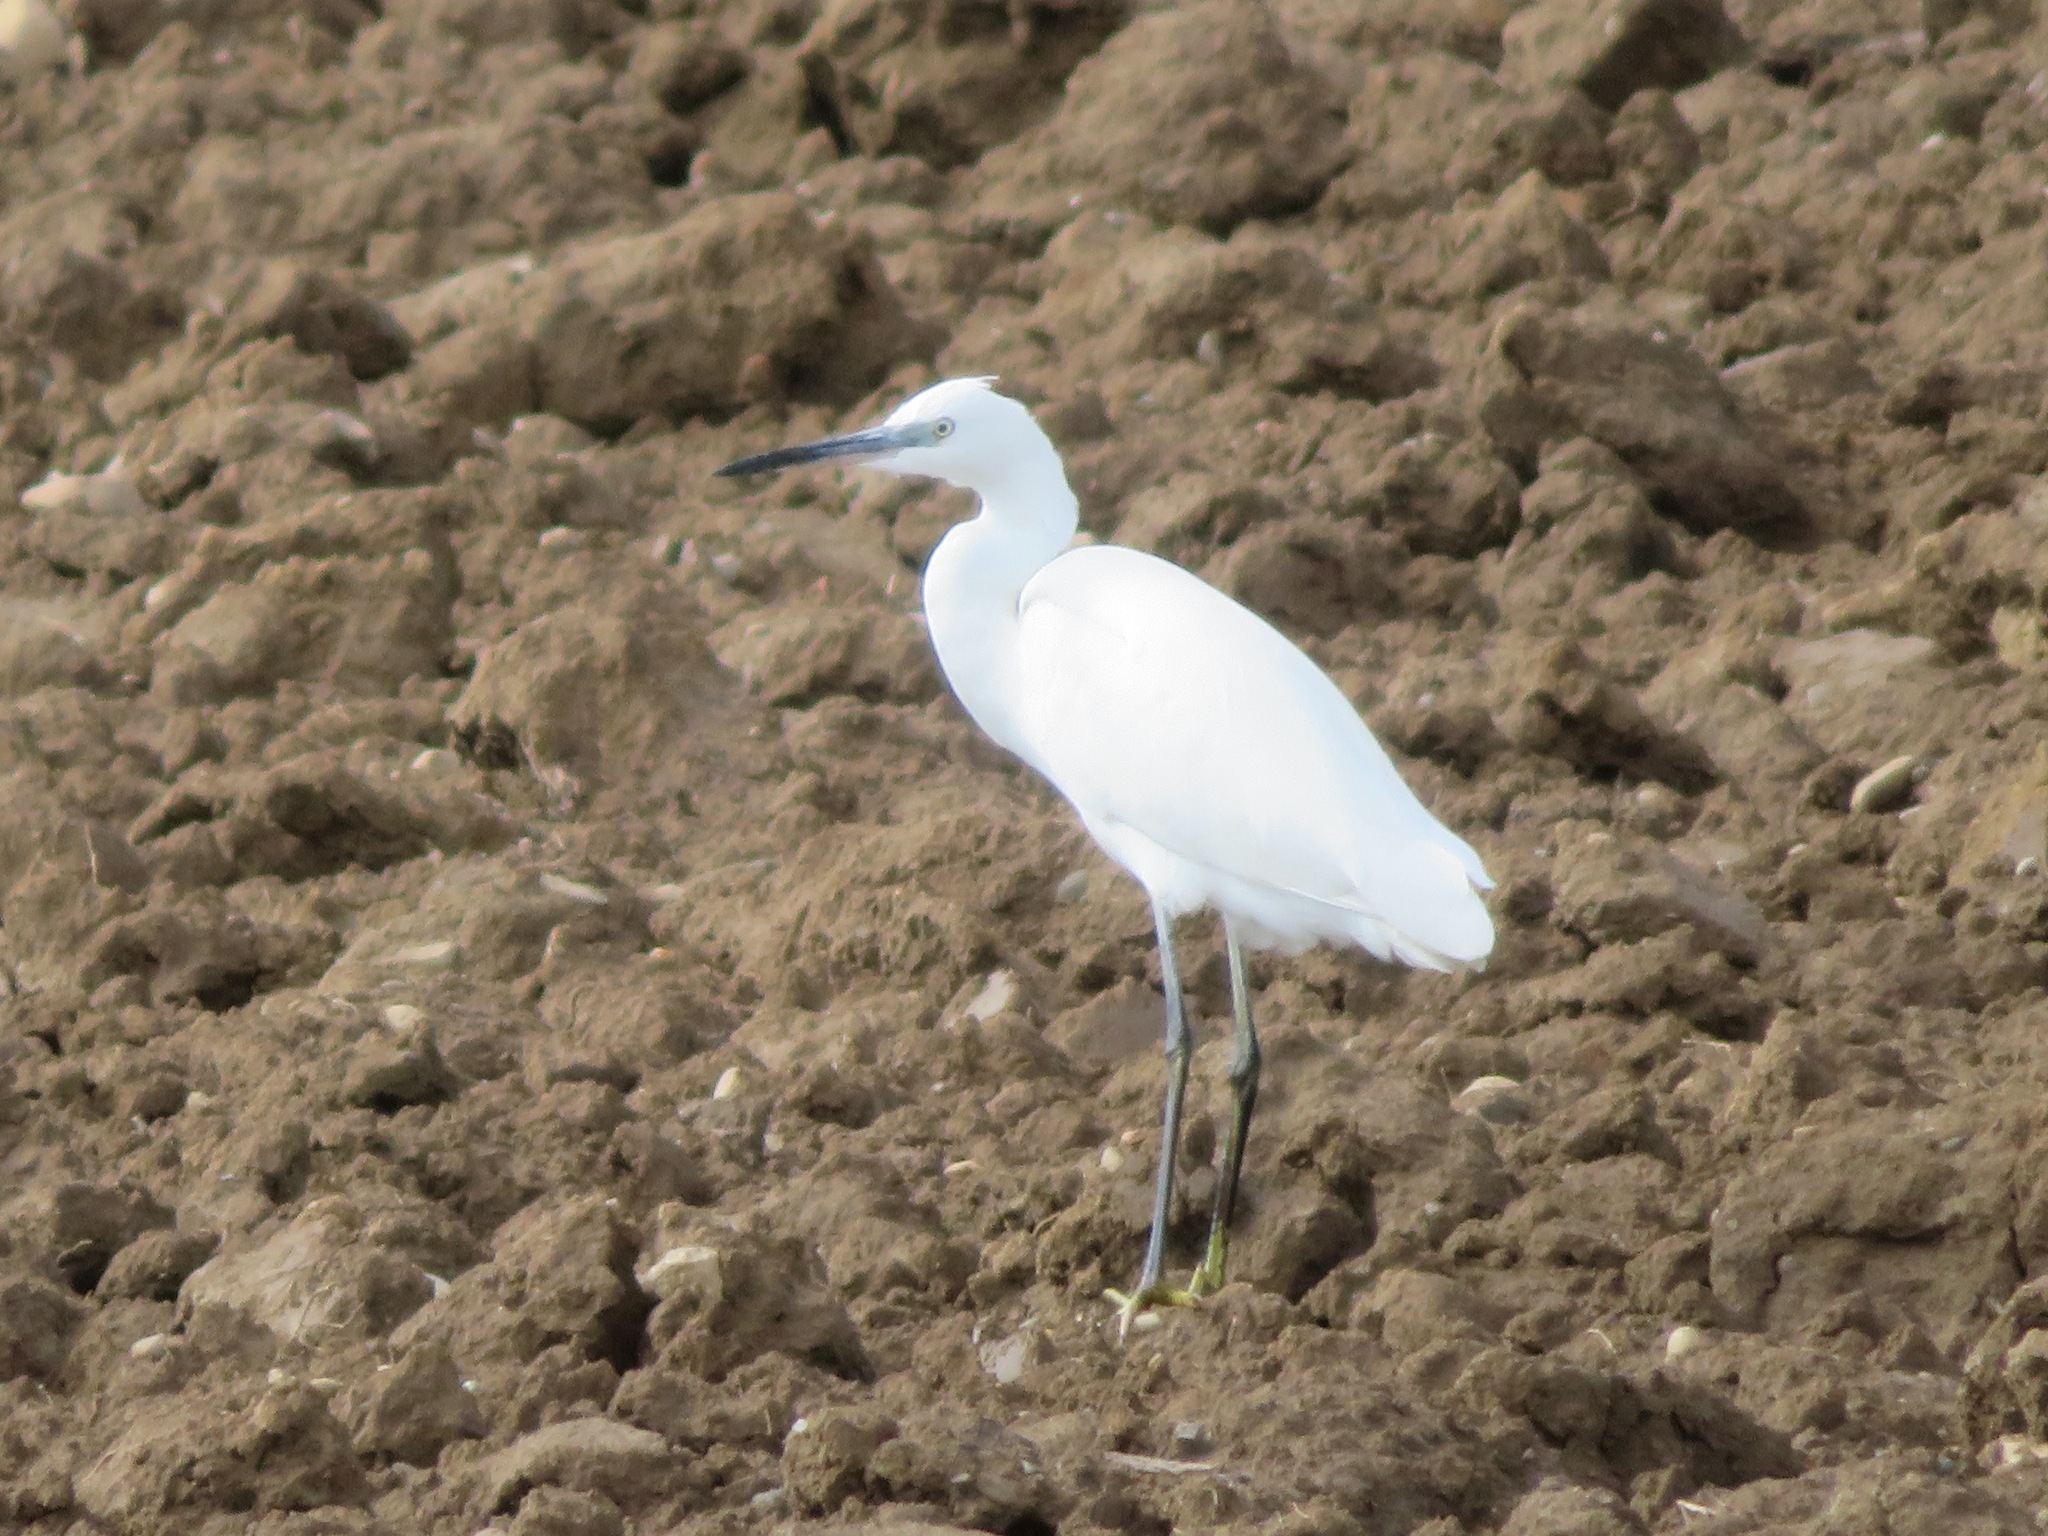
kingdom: Animalia
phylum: Chordata
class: Aves
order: Pelecaniformes
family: Ardeidae
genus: Egretta
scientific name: Egretta garzetta
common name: Little egret
